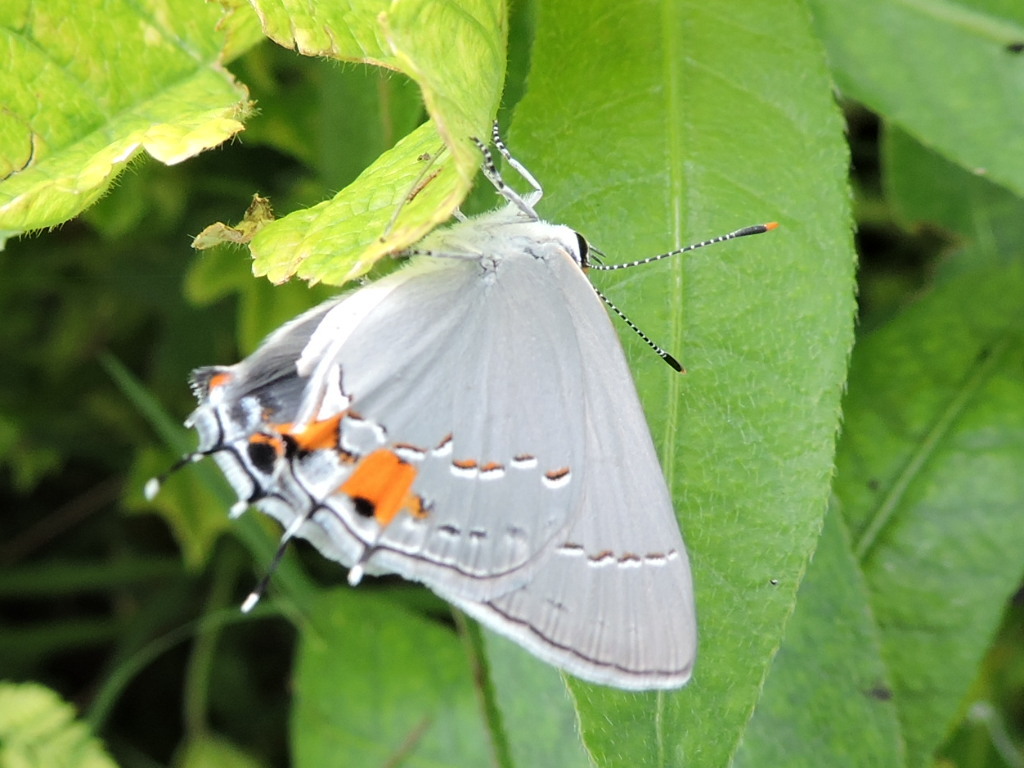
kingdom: Animalia
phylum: Arthropoda
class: Insecta
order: Lepidoptera
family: Lycaenidae
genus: Strymon
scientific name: Strymon melinus
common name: Gray hairstreak
